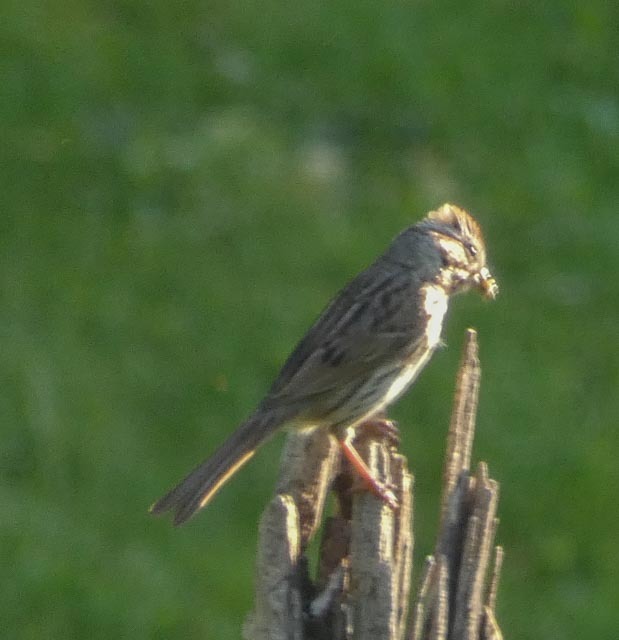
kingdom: Animalia
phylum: Chordata
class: Aves
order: Passeriformes
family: Passerellidae
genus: Melospiza
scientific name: Melospiza melodia
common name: Song sparrow
